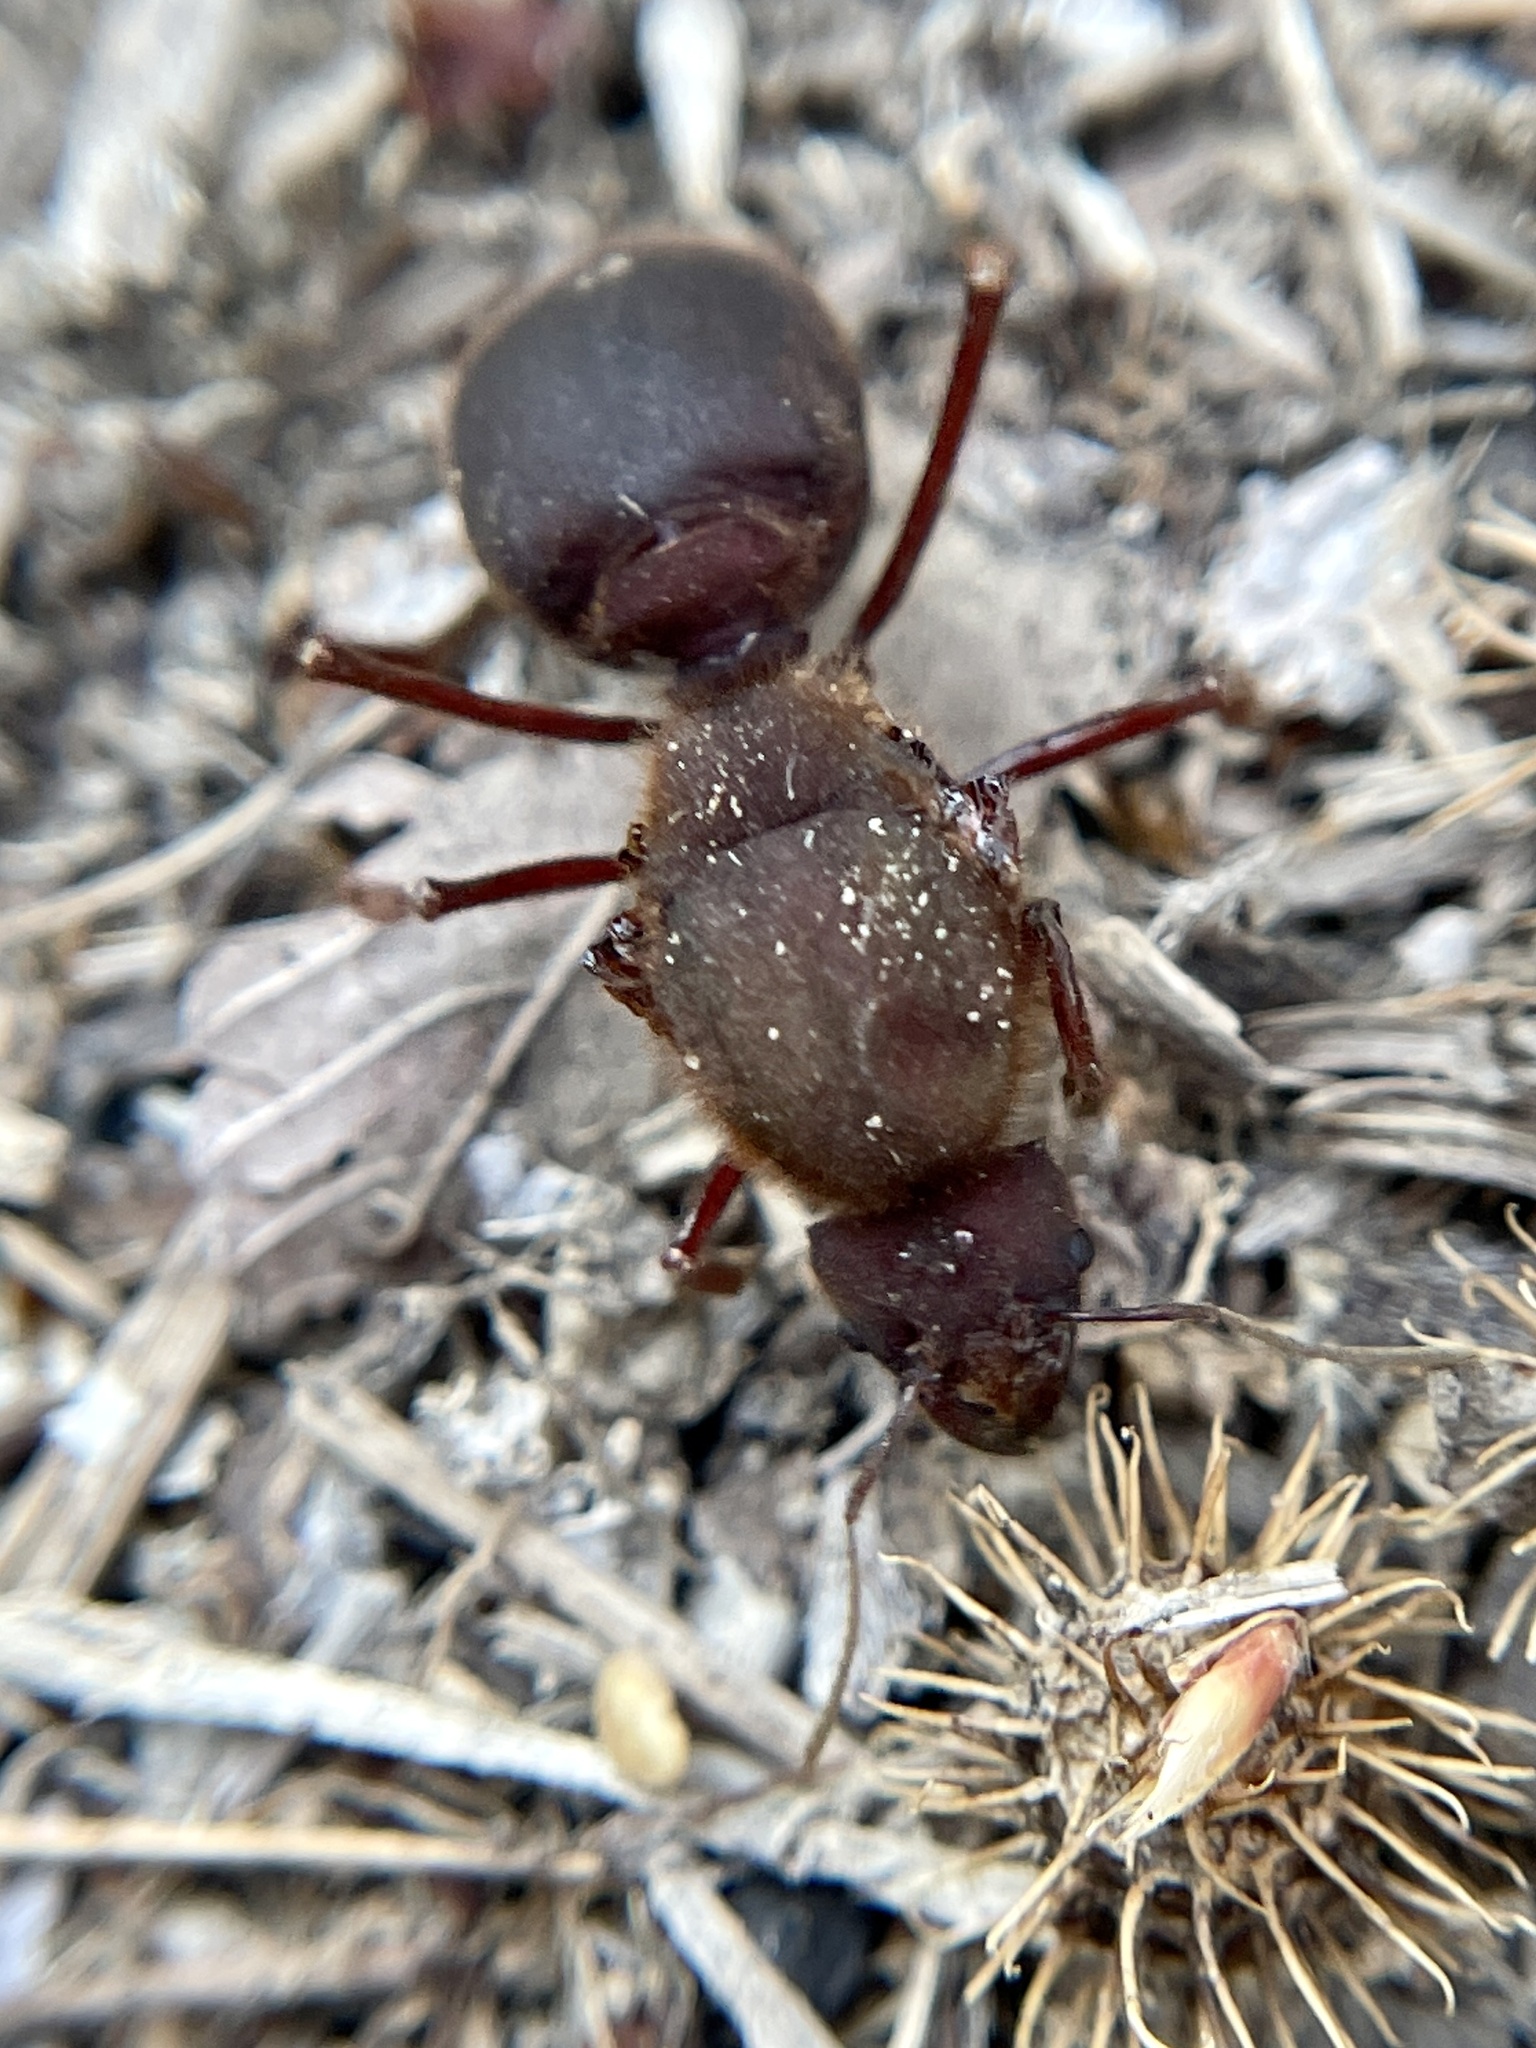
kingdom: Animalia
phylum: Arthropoda
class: Insecta
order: Hymenoptera
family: Formicidae
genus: Atta
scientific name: Atta texana
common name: Texas leafcutting ant
